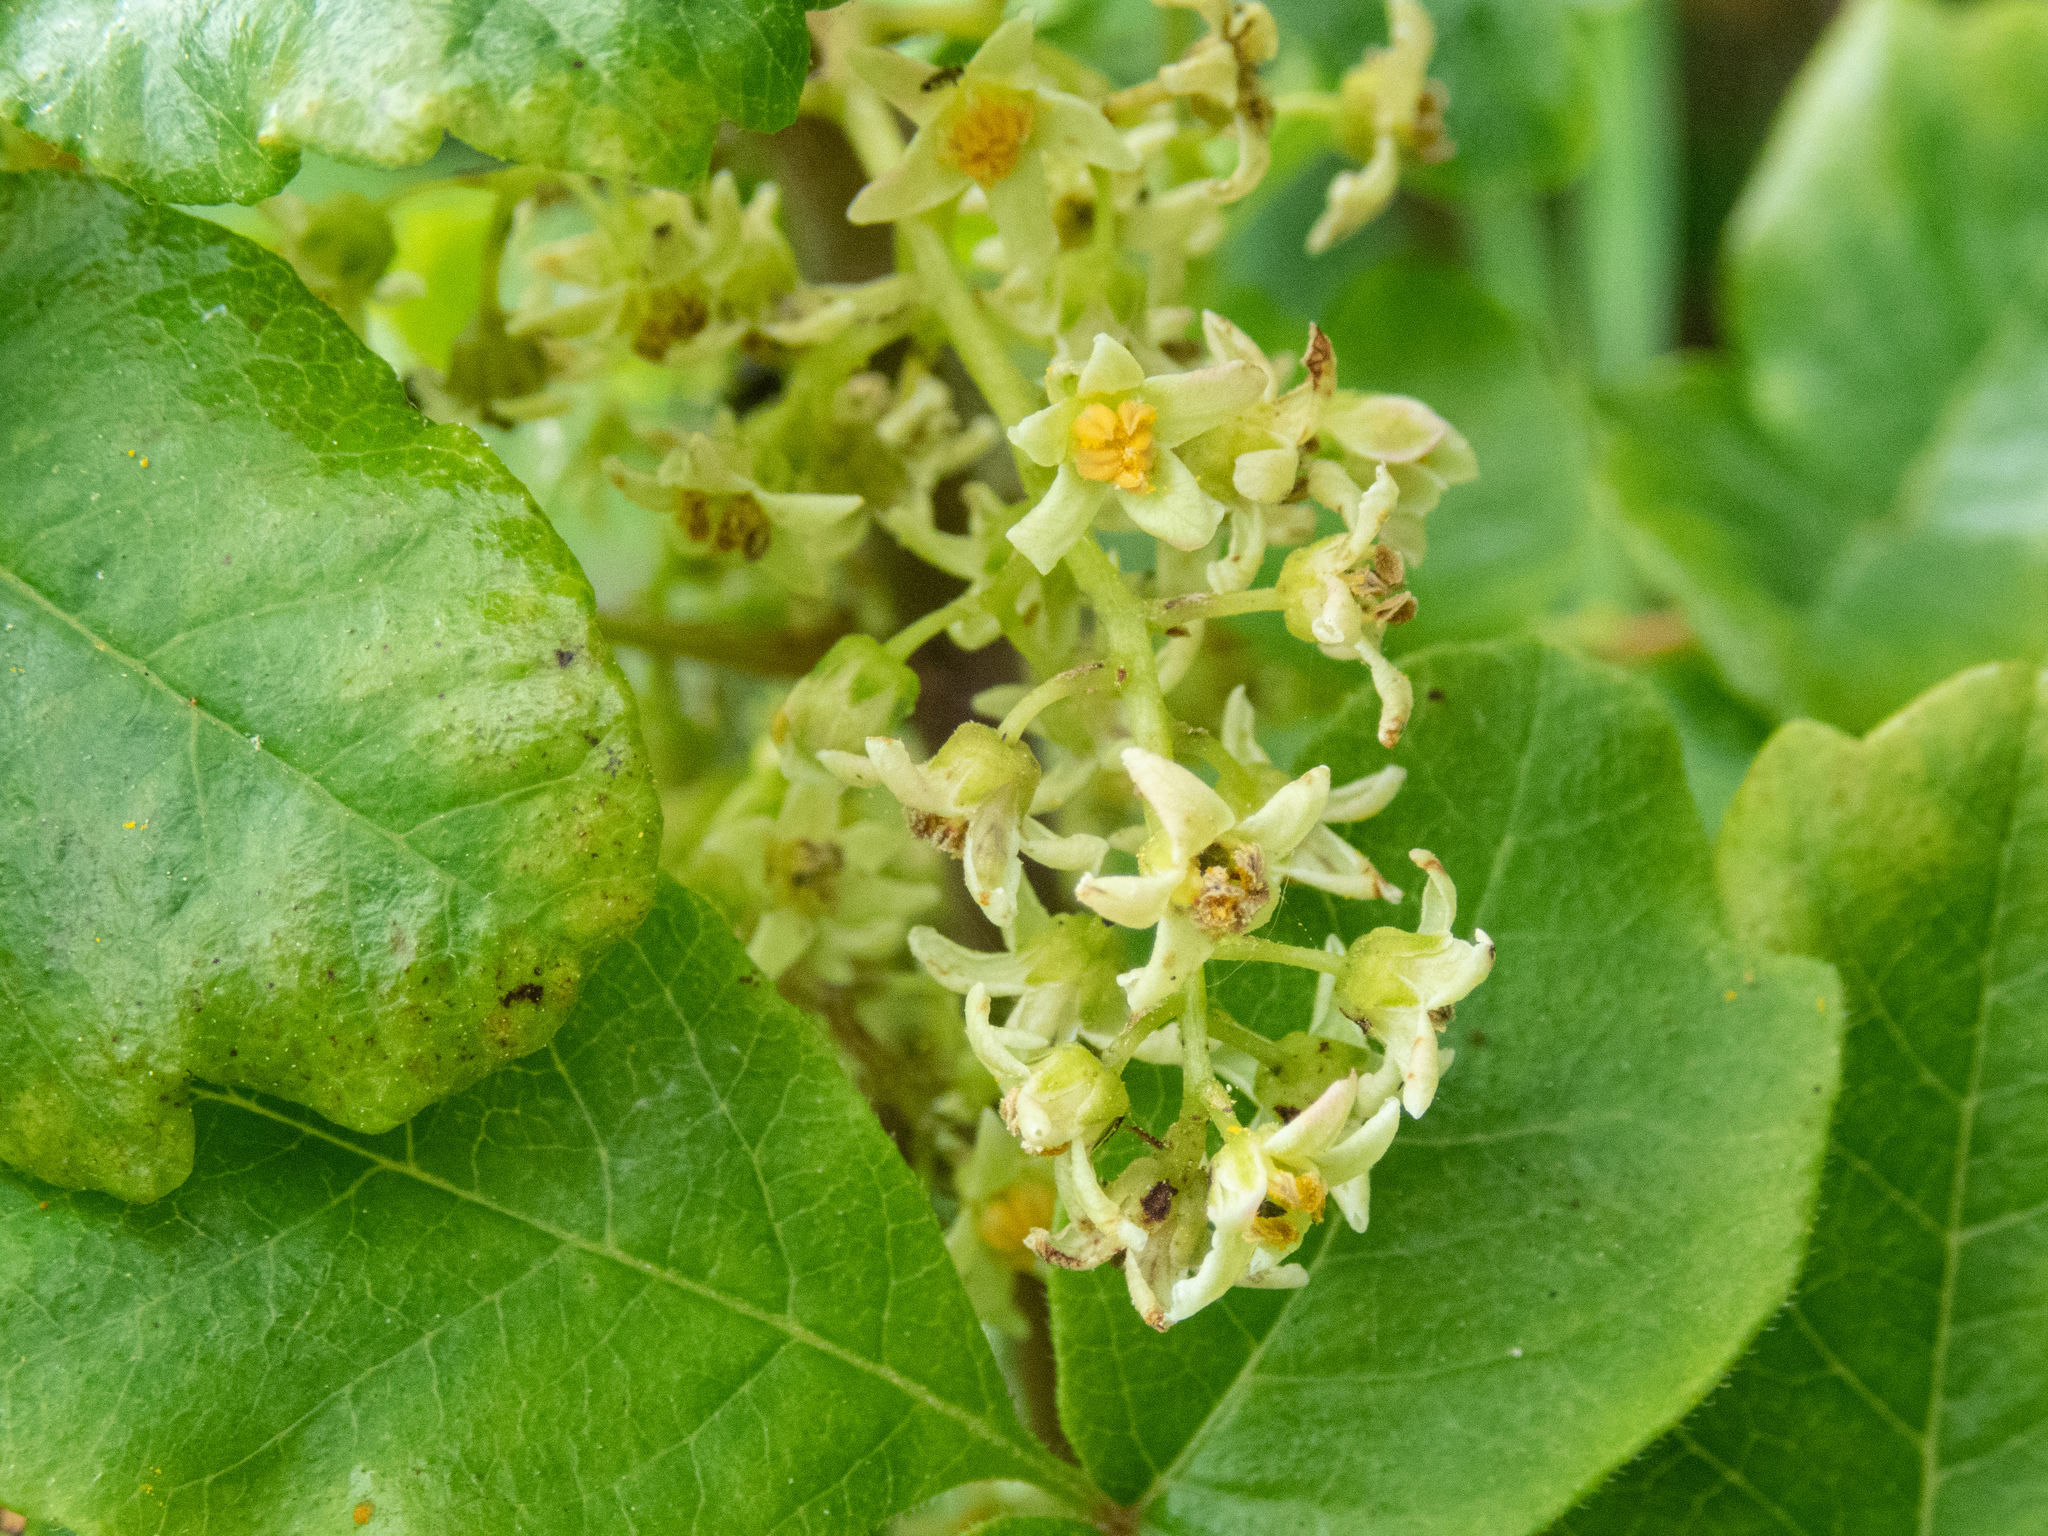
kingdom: Plantae
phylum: Tracheophyta
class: Magnoliopsida
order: Sapindales
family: Anacardiaceae
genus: Toxicodendron
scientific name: Toxicodendron diversilobum
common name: Pacific poison-oak
